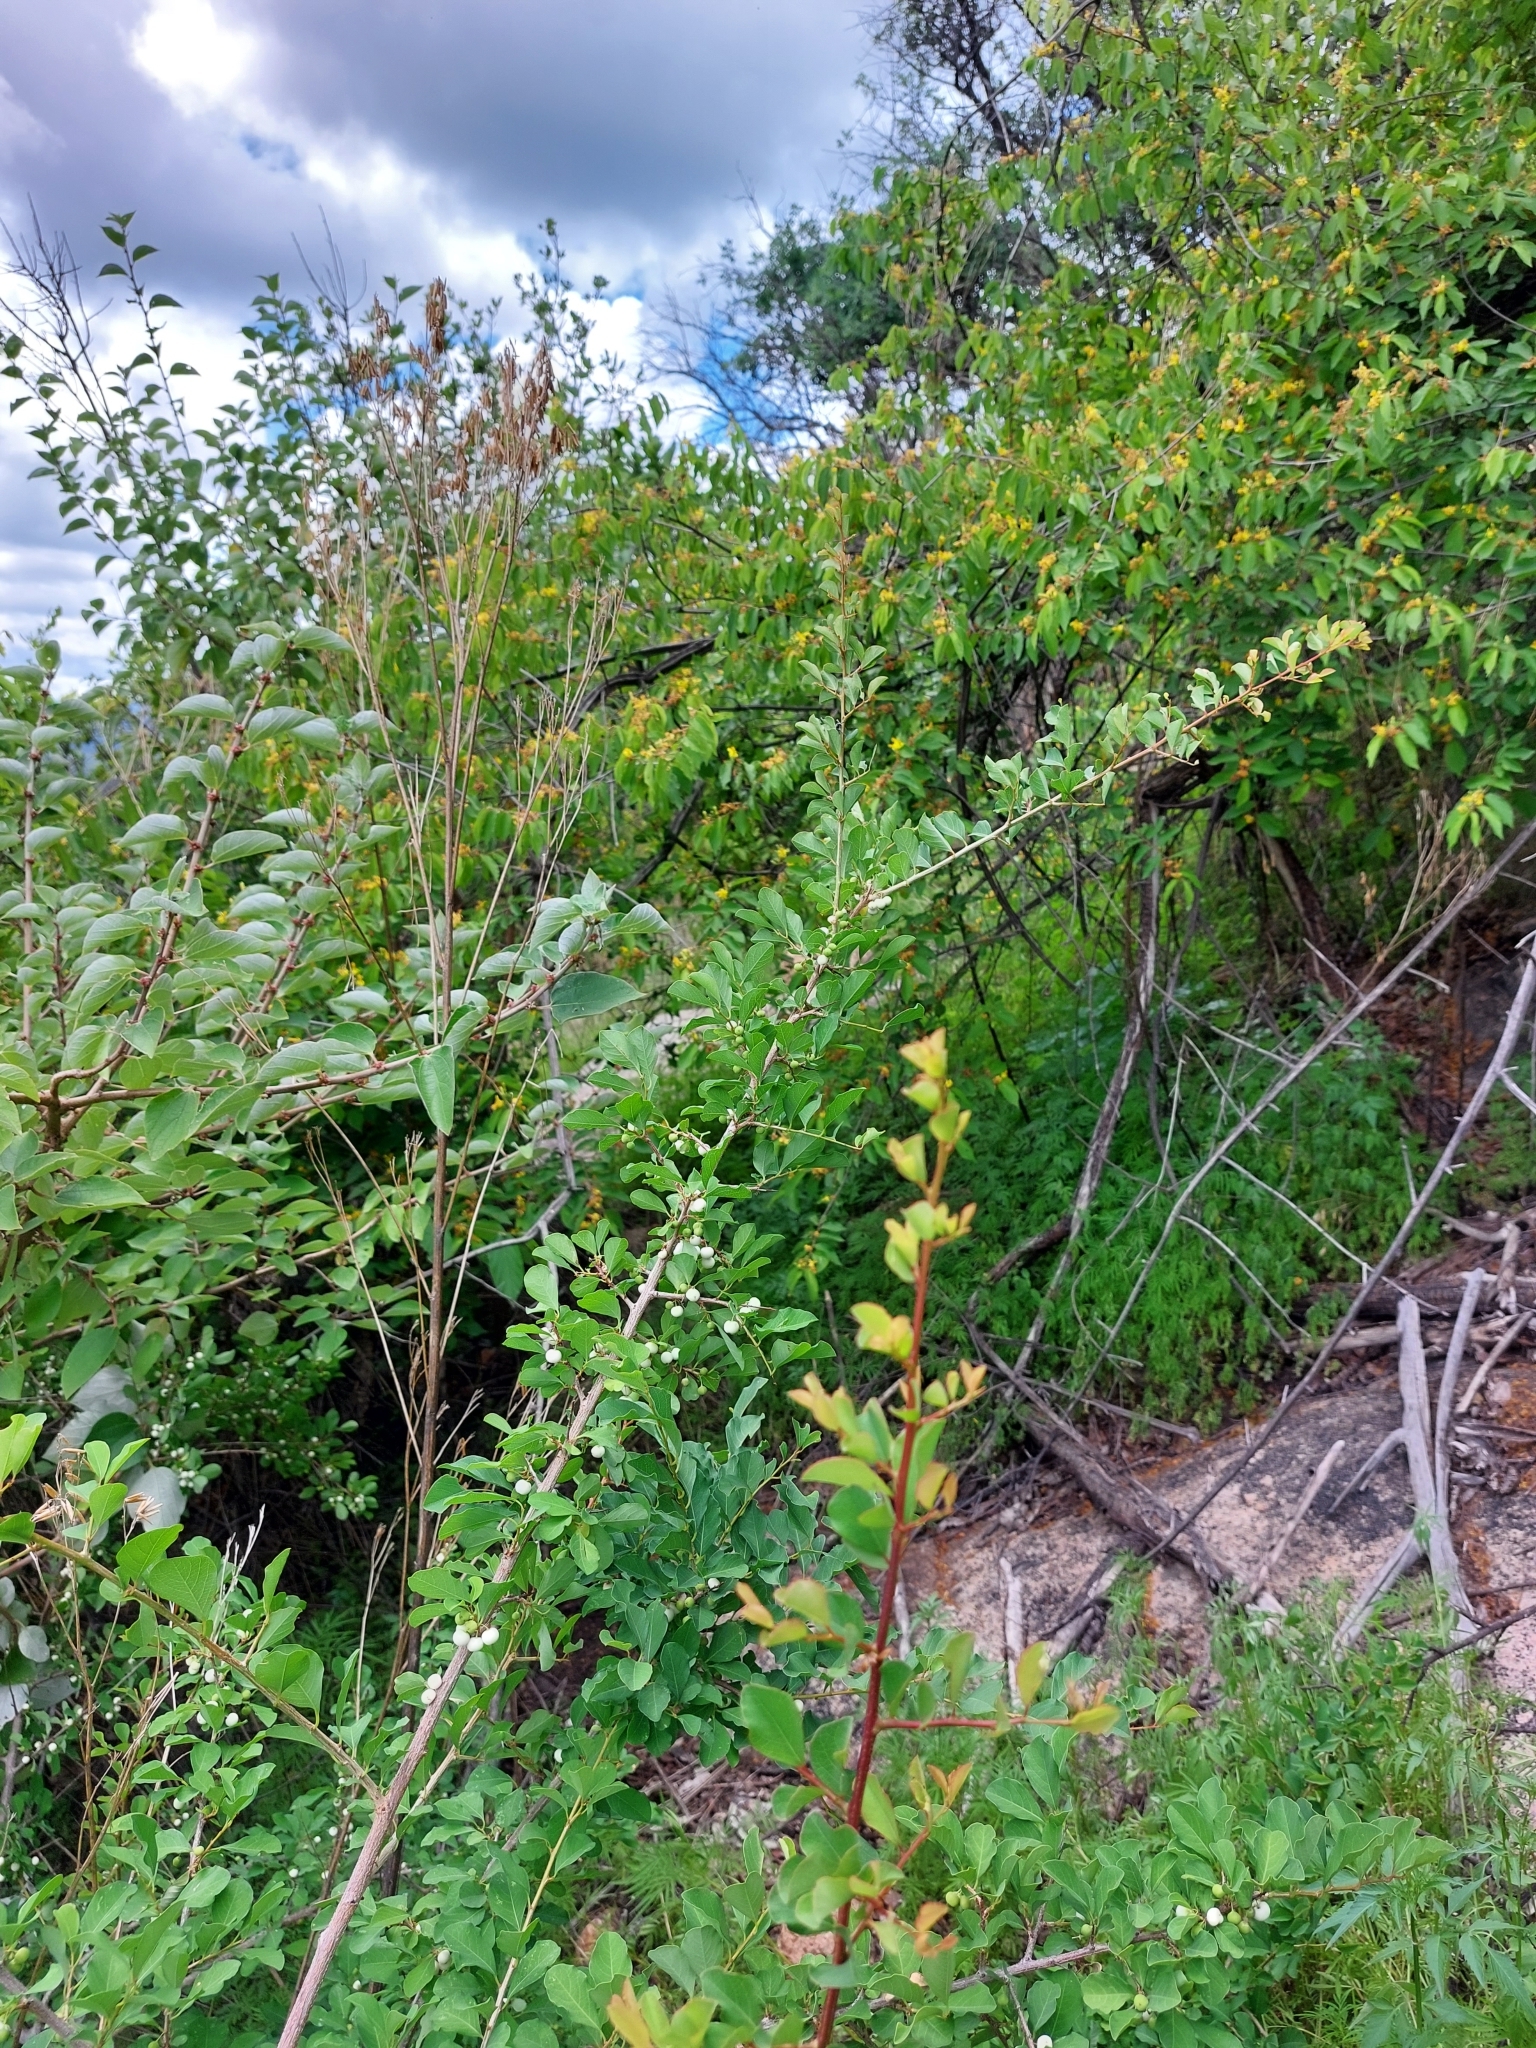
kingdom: Plantae
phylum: Tracheophyta
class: Magnoliopsida
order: Malpighiales
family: Phyllanthaceae
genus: Flueggea
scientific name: Flueggea virosa
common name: Common bushweed
